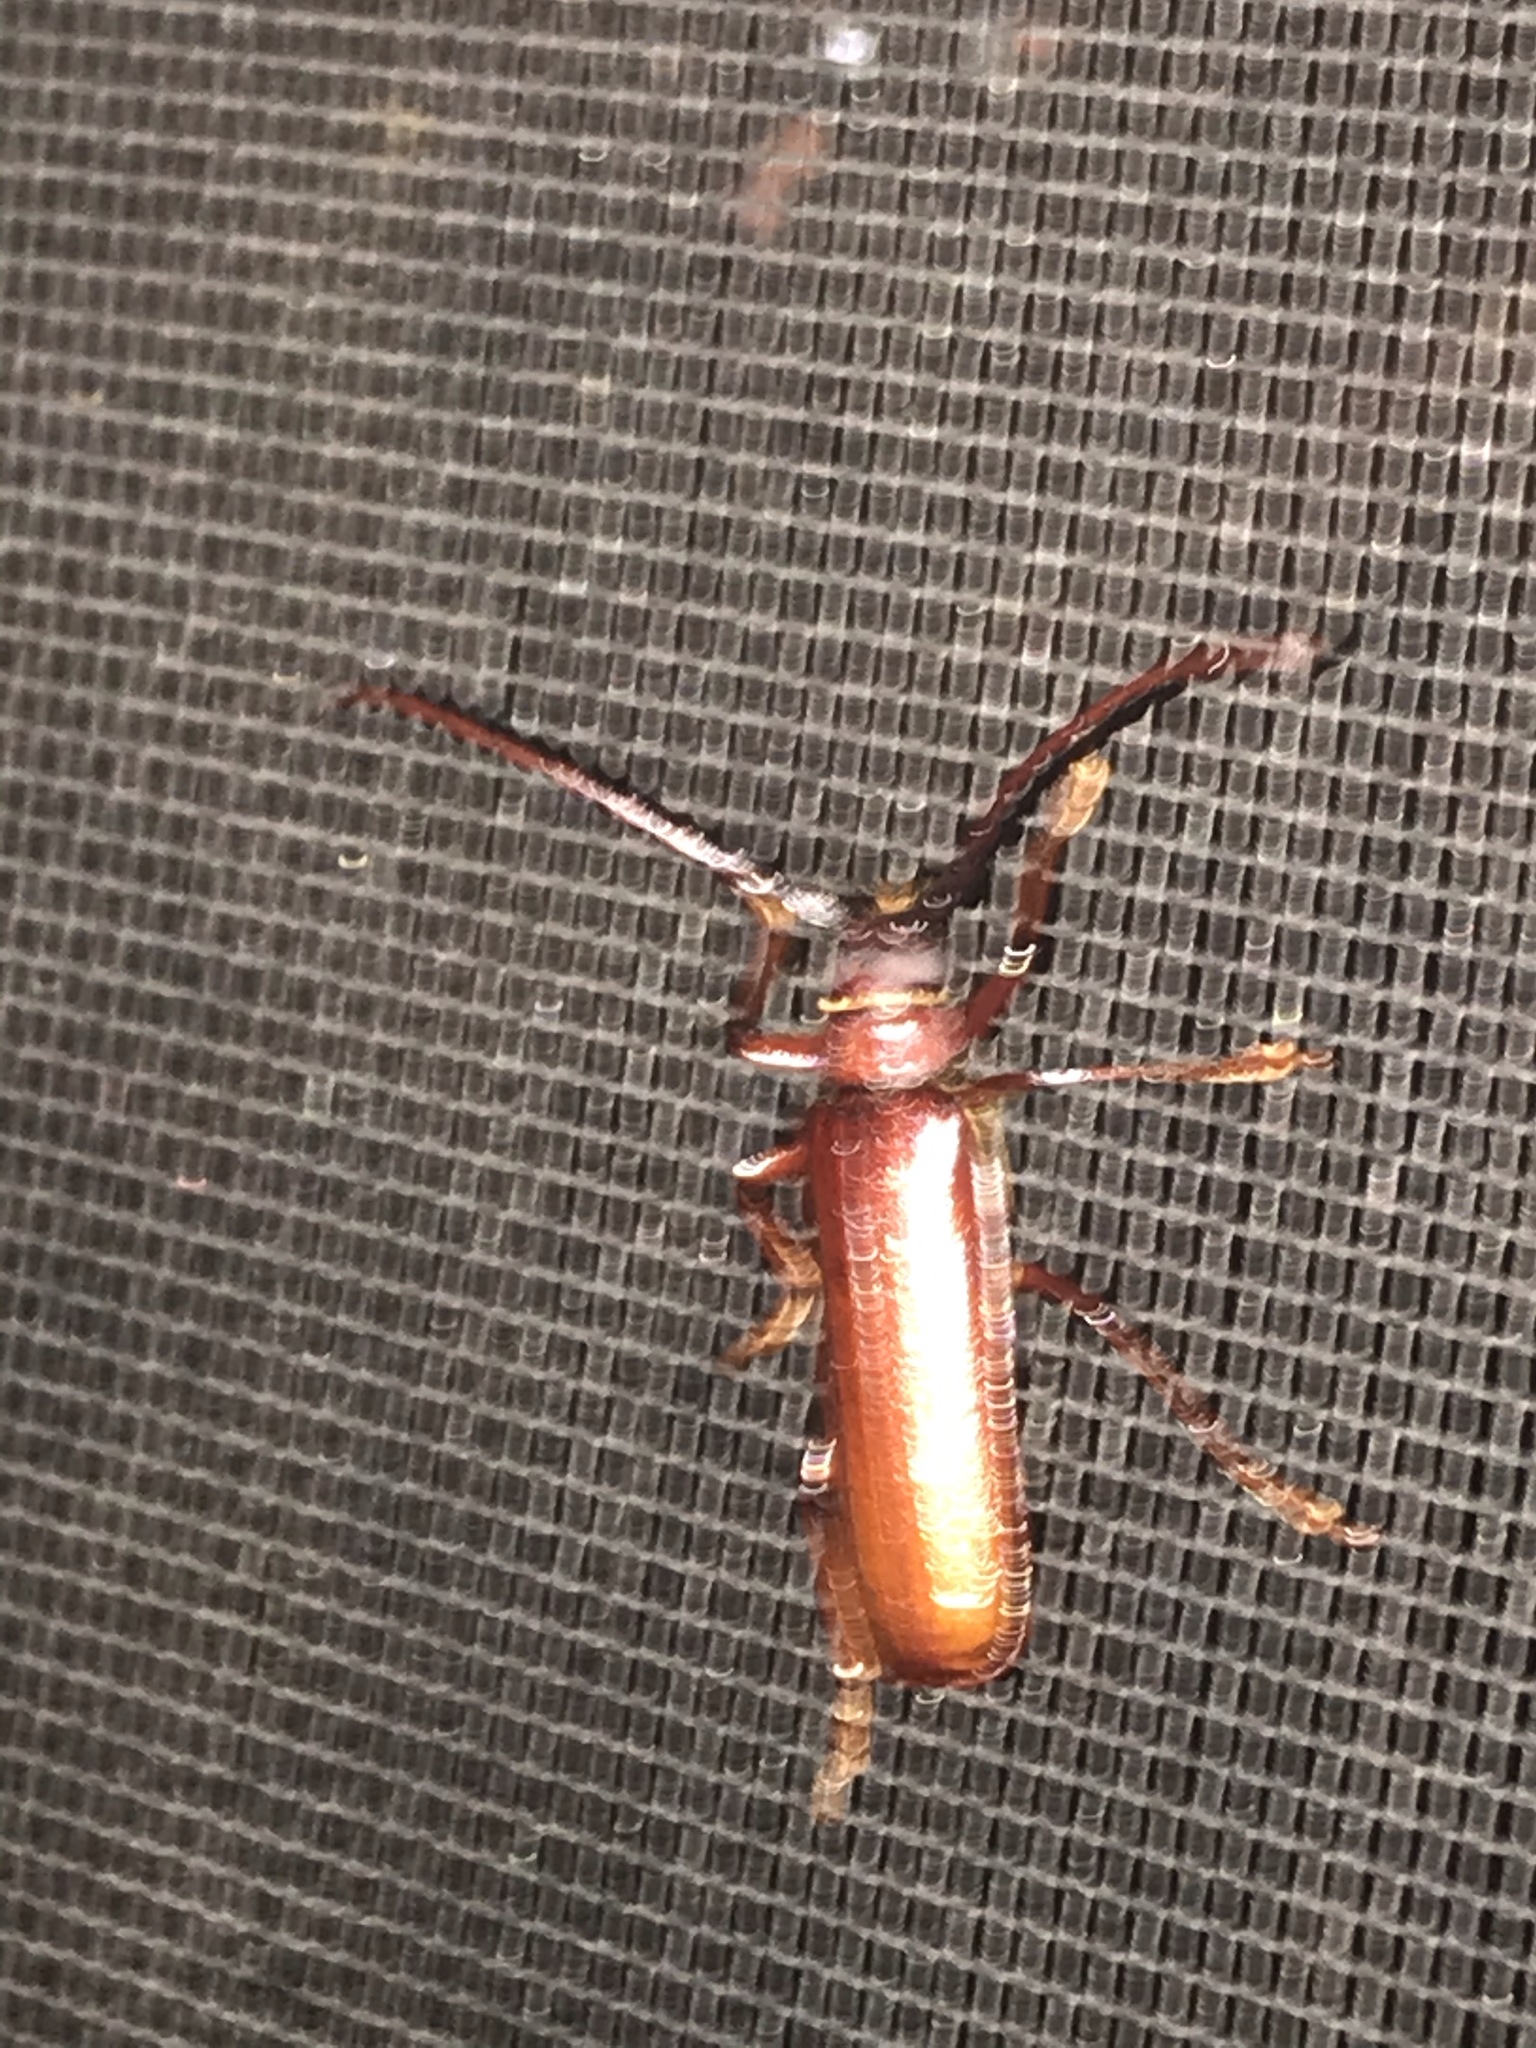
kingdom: Animalia
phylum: Arthropoda
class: Insecta
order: Coleoptera
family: Cerambycidae
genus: Orthosoma
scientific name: Orthosoma brunneum
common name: Brown prionid beetle
